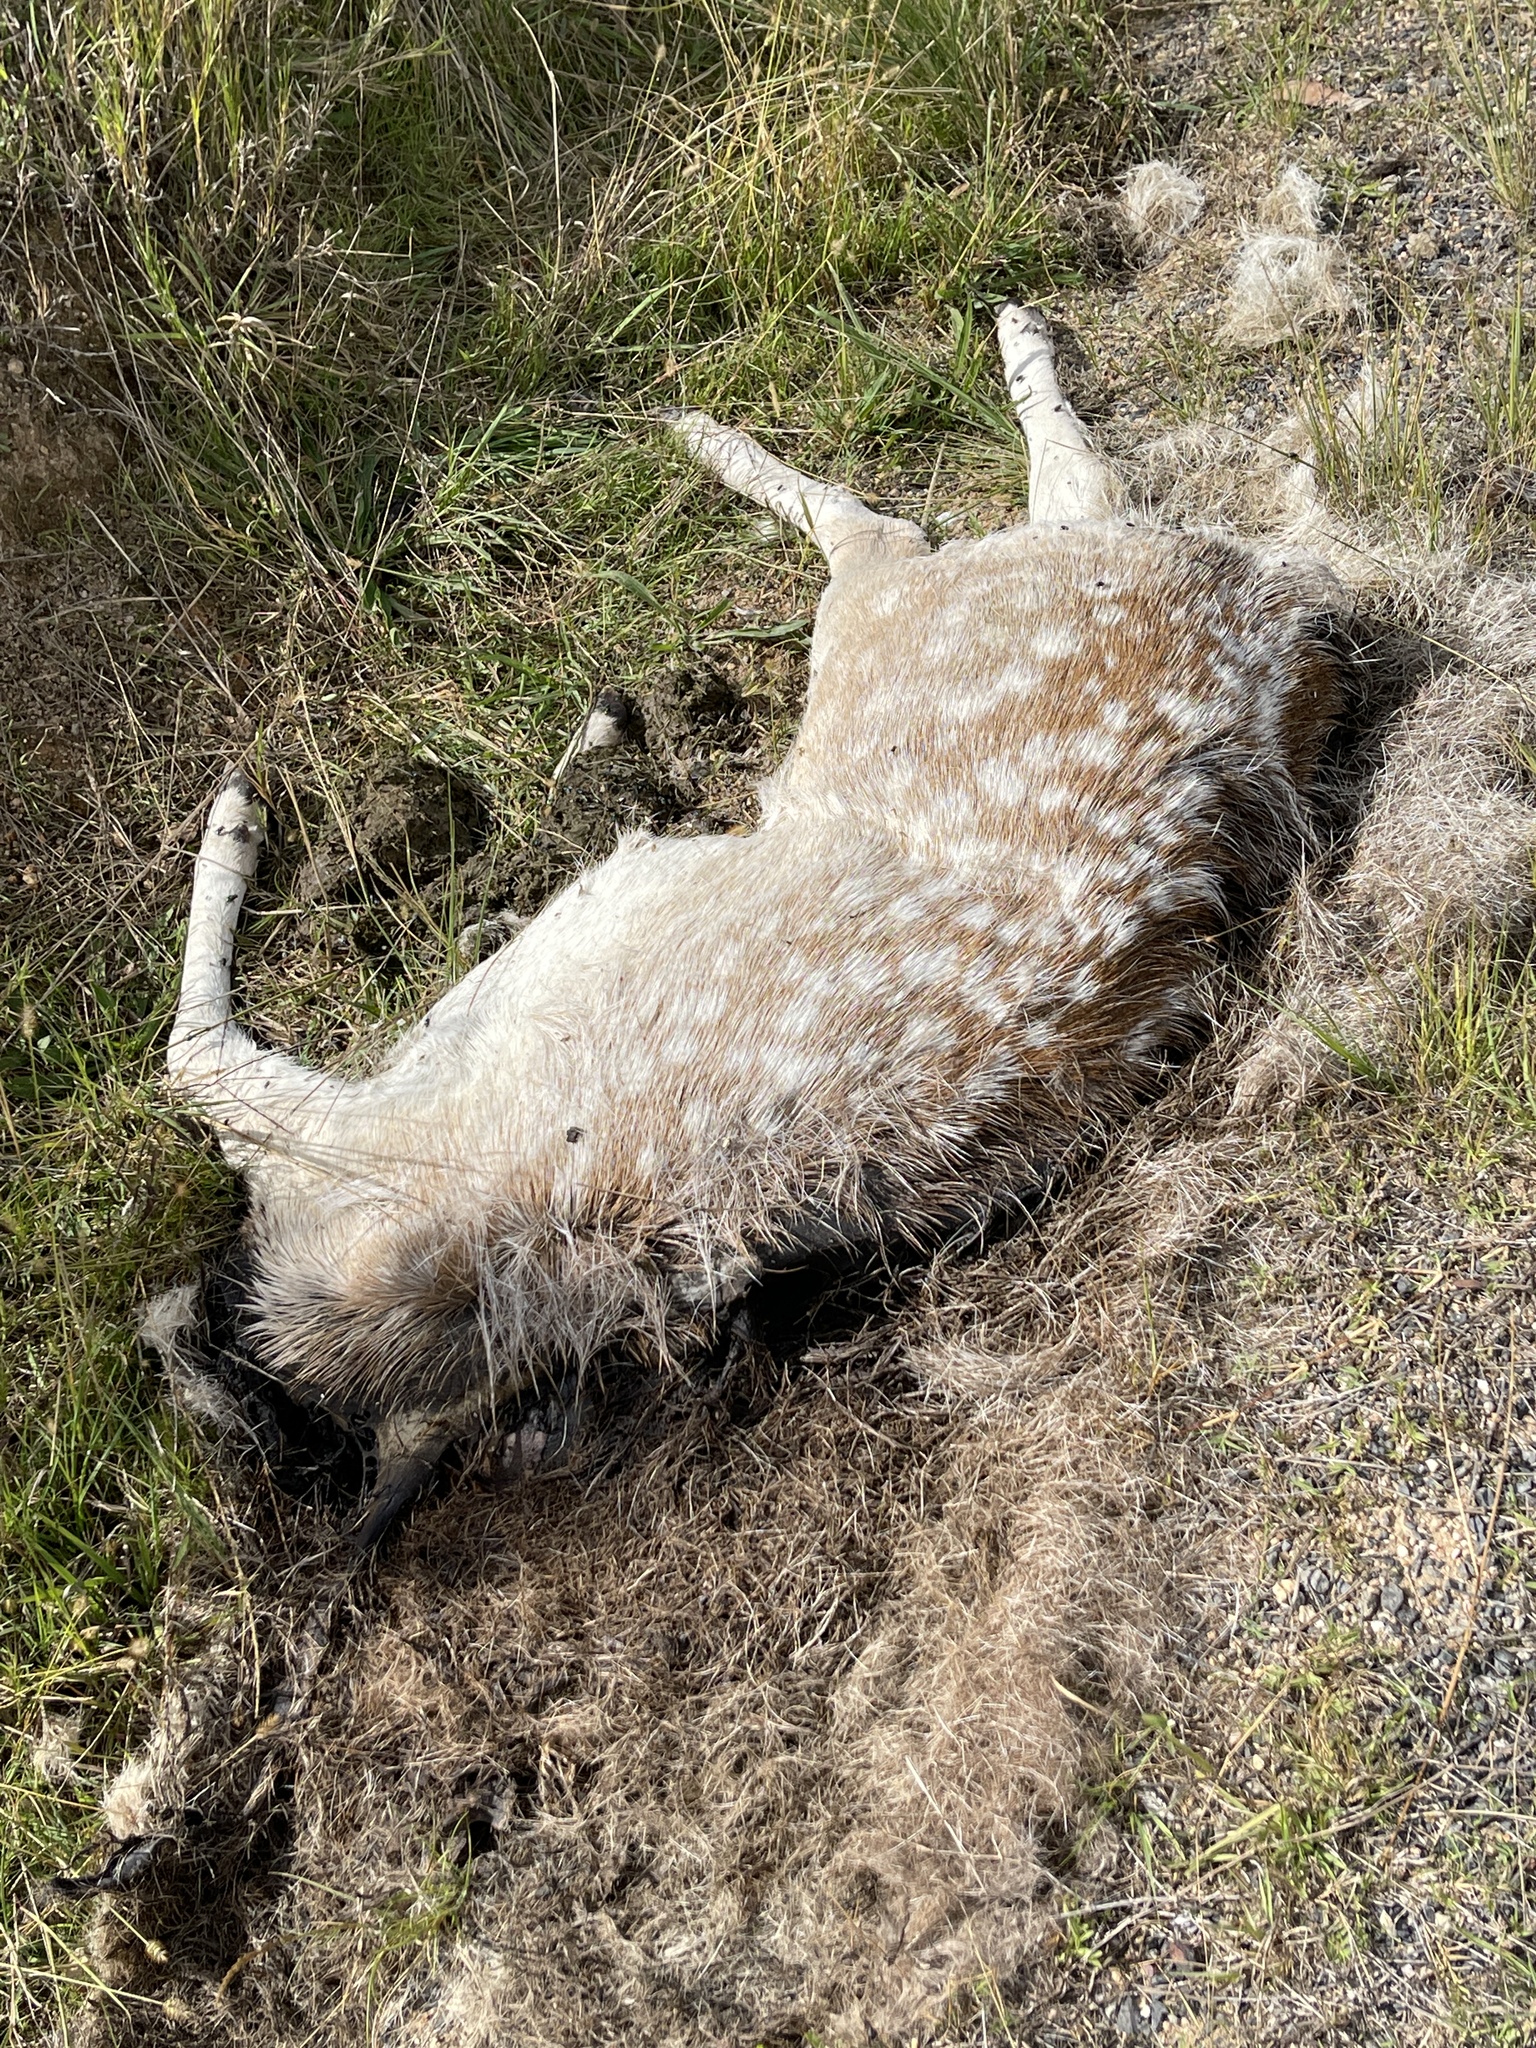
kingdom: Animalia
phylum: Chordata
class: Mammalia
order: Artiodactyla
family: Cervidae
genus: Dama
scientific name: Dama dama
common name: Fallow deer
